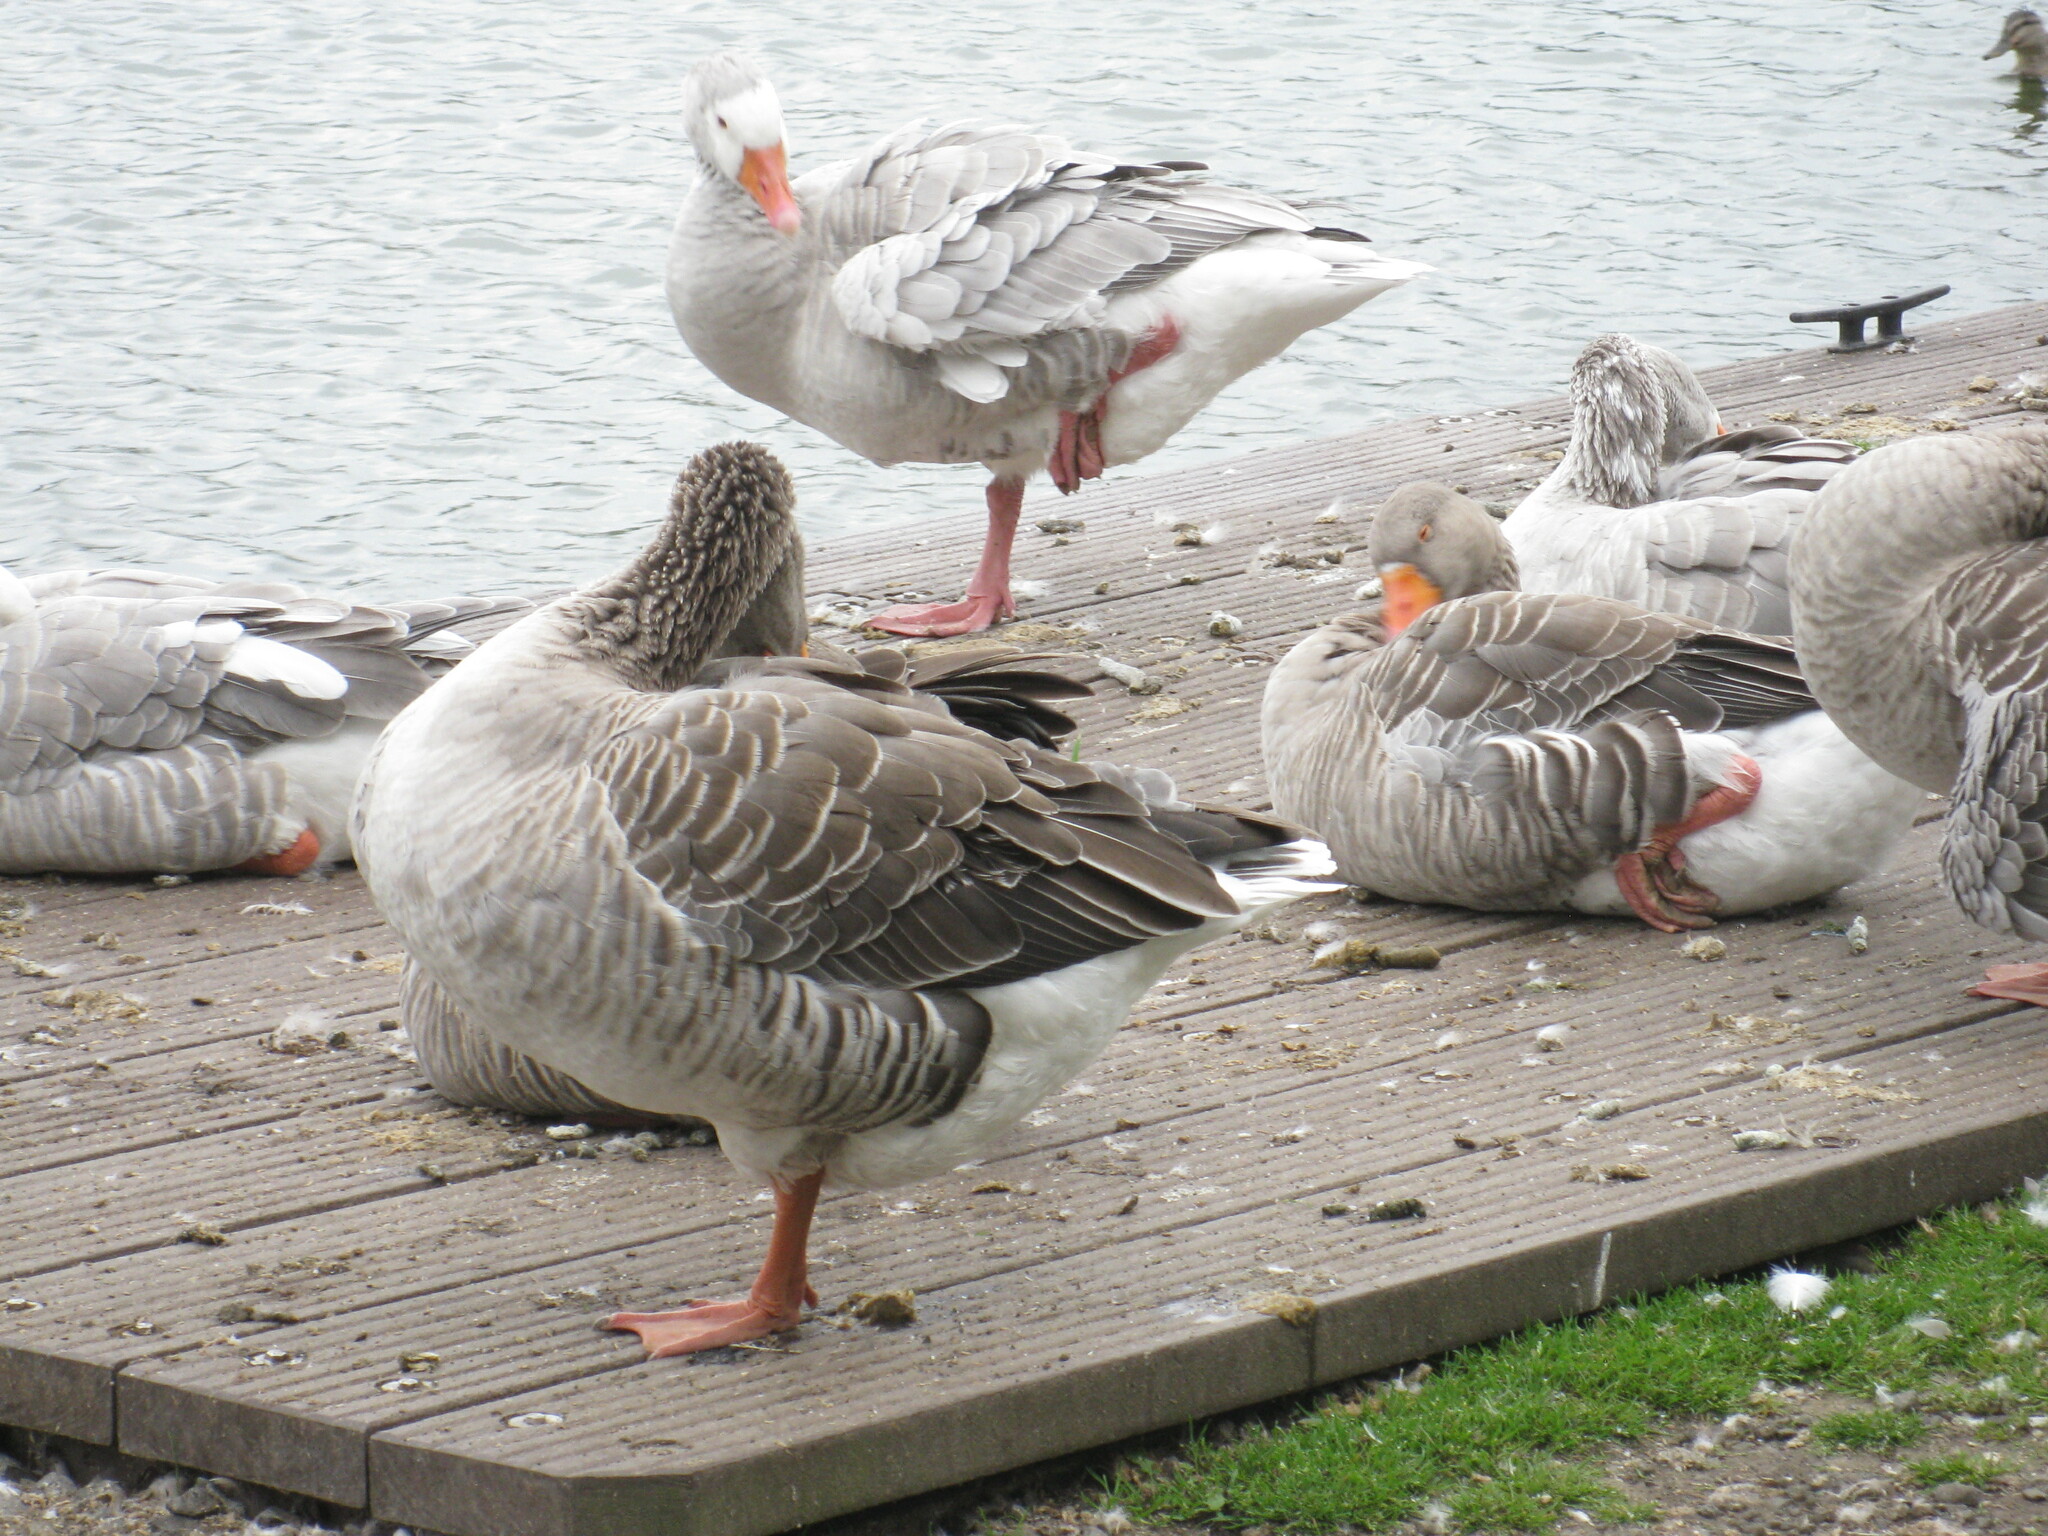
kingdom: Animalia
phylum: Chordata
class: Aves
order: Anseriformes
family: Anatidae
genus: Anser
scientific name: Anser anser
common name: Greylag goose
